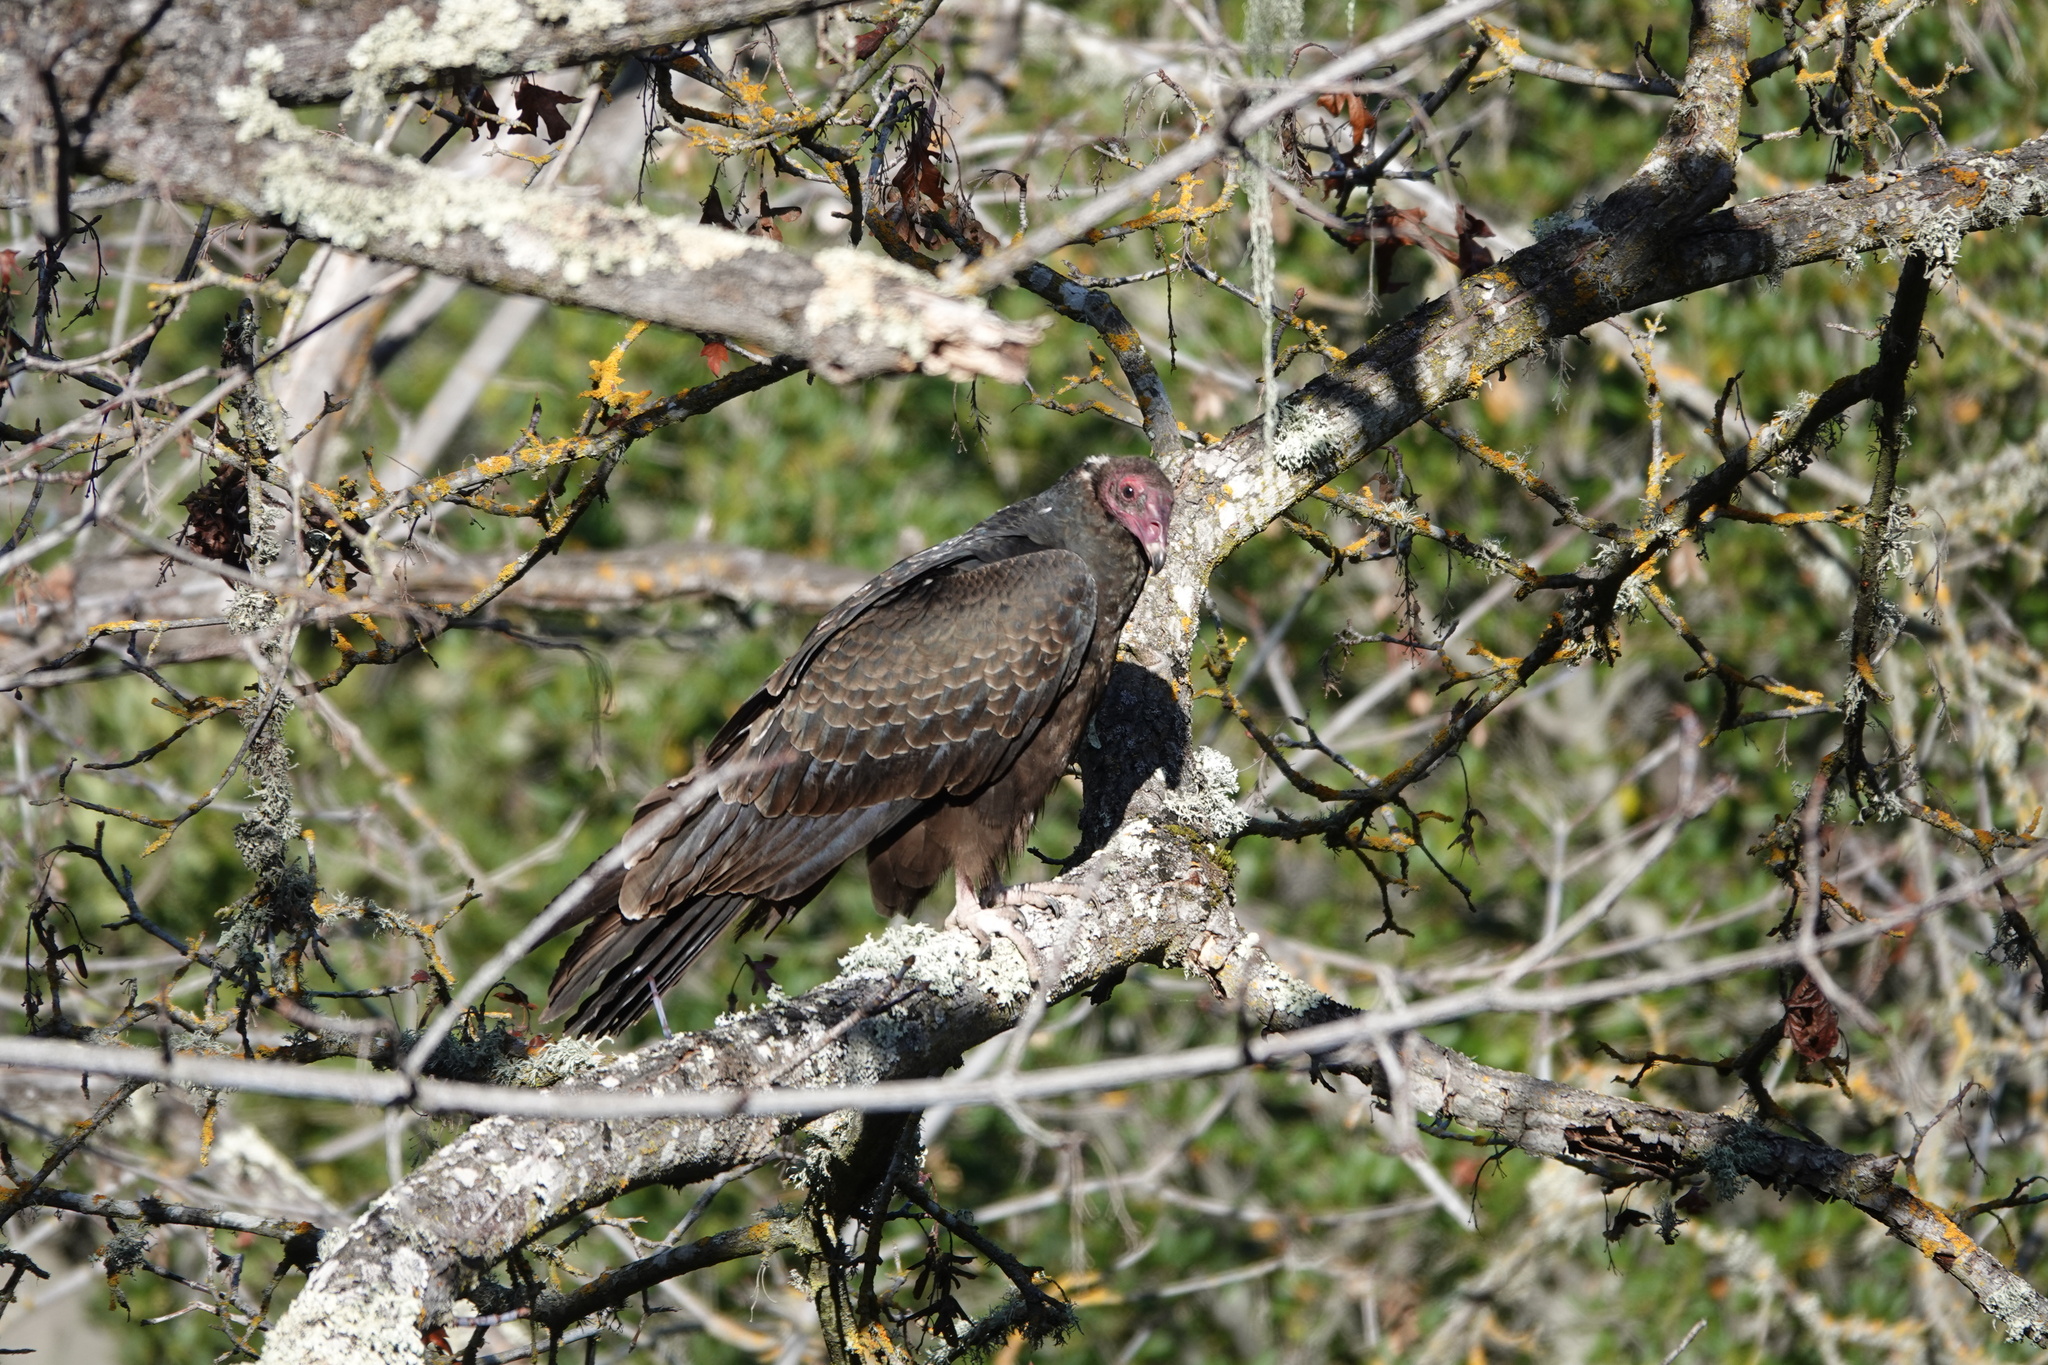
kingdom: Animalia
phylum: Chordata
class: Aves
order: Accipitriformes
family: Cathartidae
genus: Cathartes
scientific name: Cathartes aura
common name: Turkey vulture
